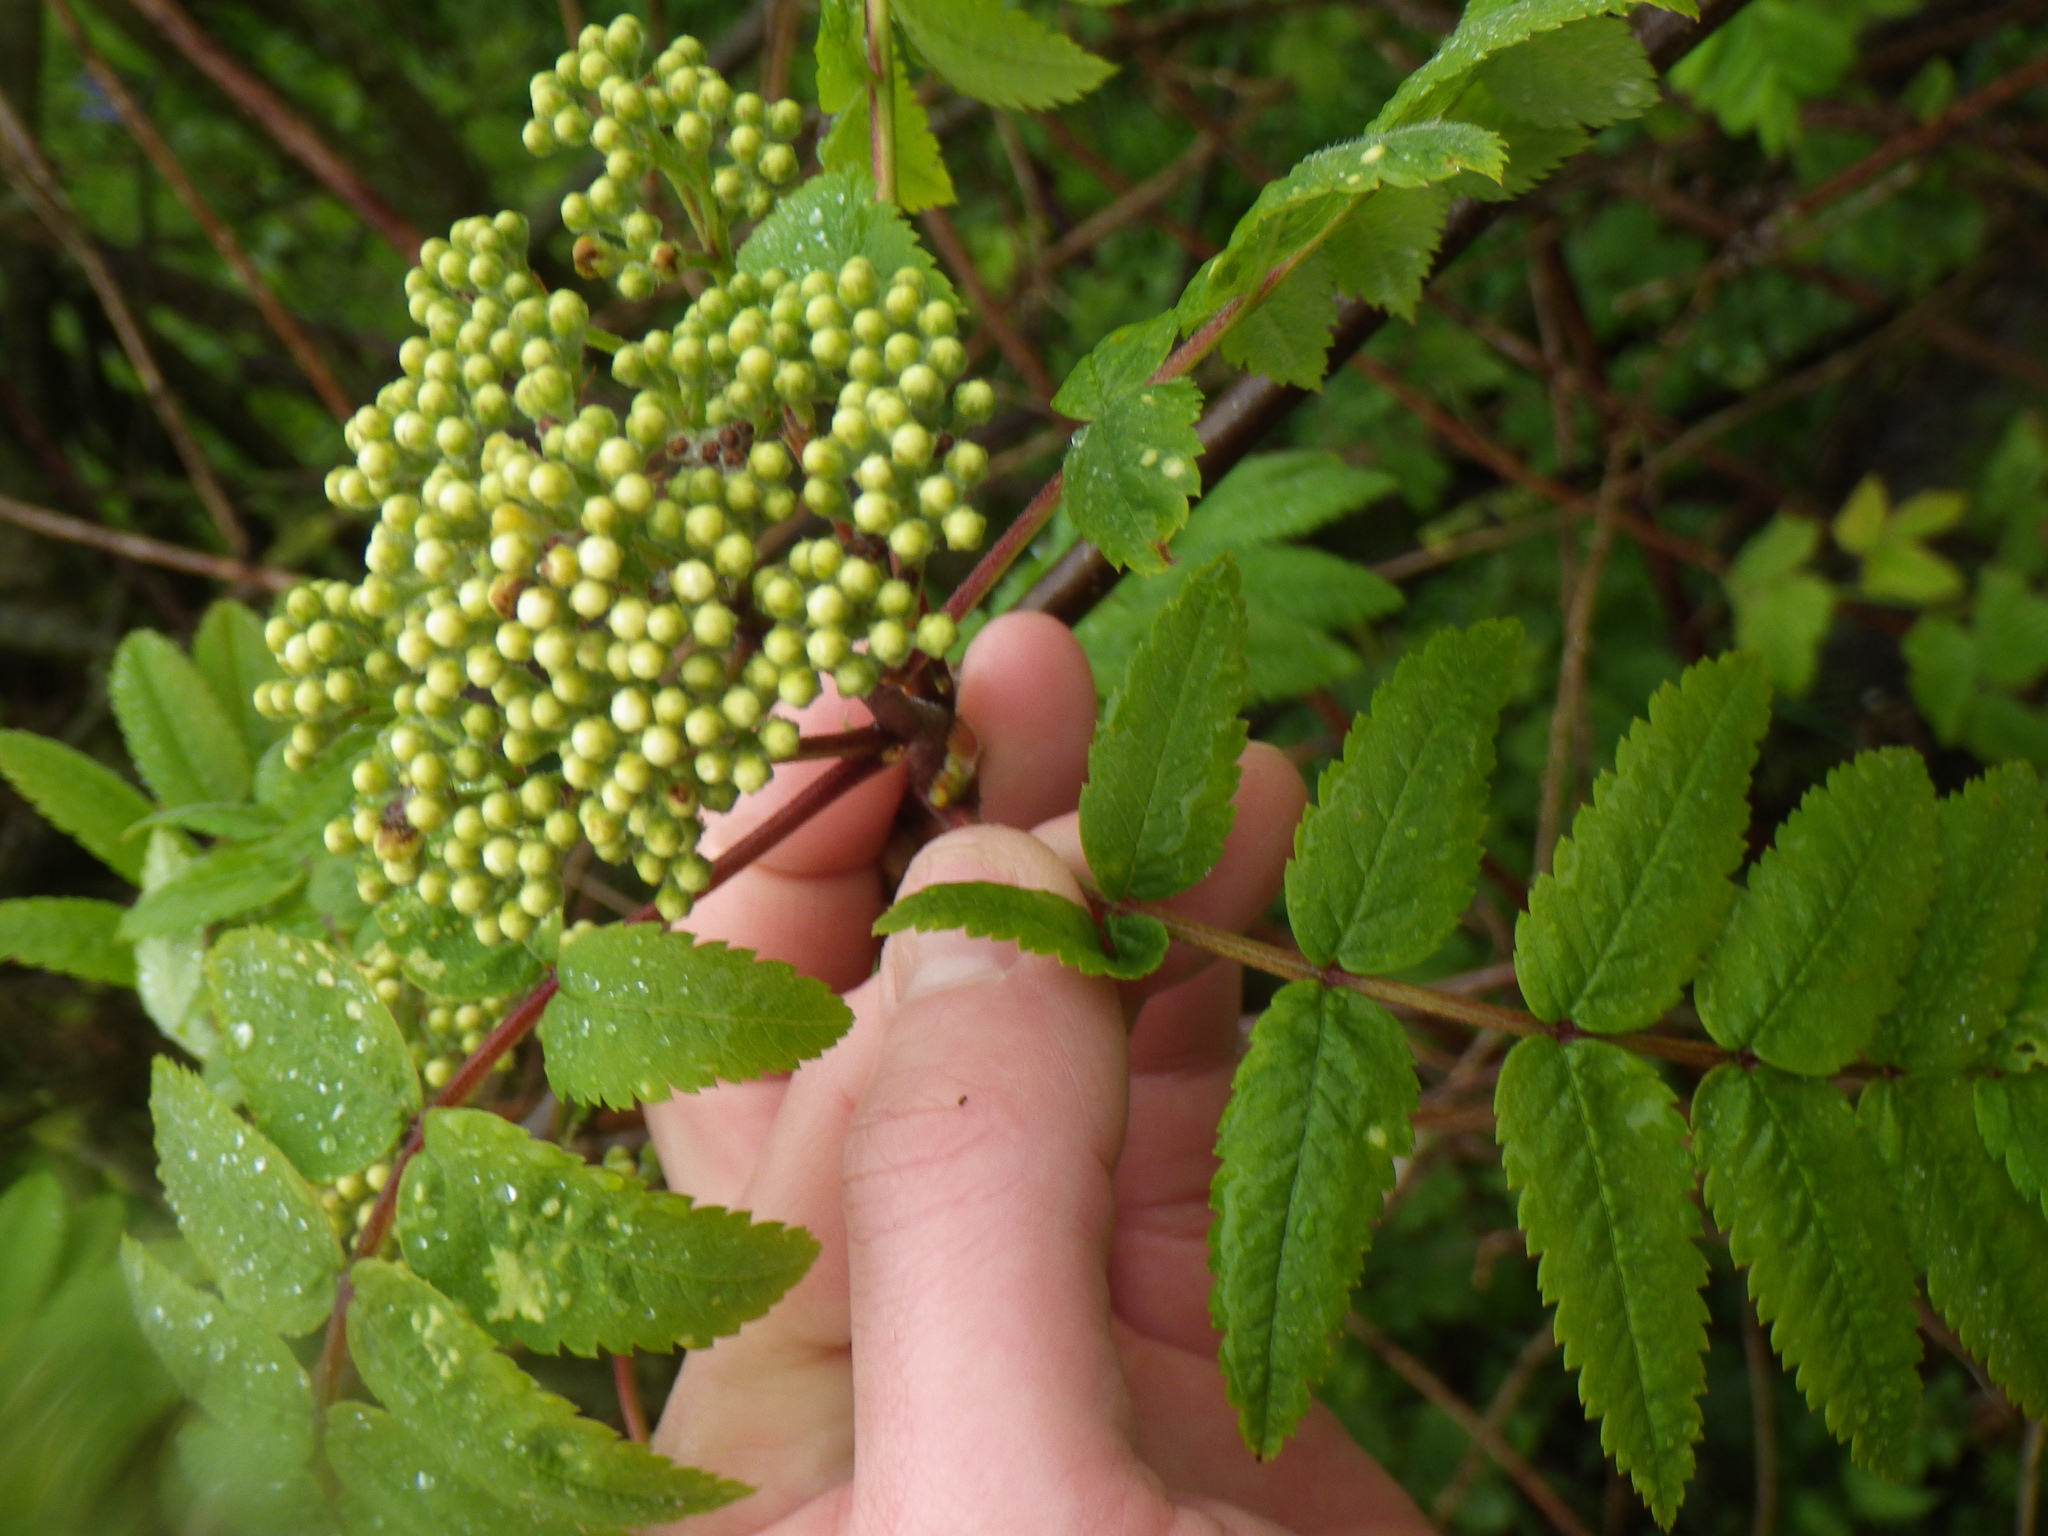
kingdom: Plantae
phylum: Tracheophyta
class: Magnoliopsida
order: Rosales
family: Rosaceae
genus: Sorbus
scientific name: Sorbus aucuparia
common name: Rowan
